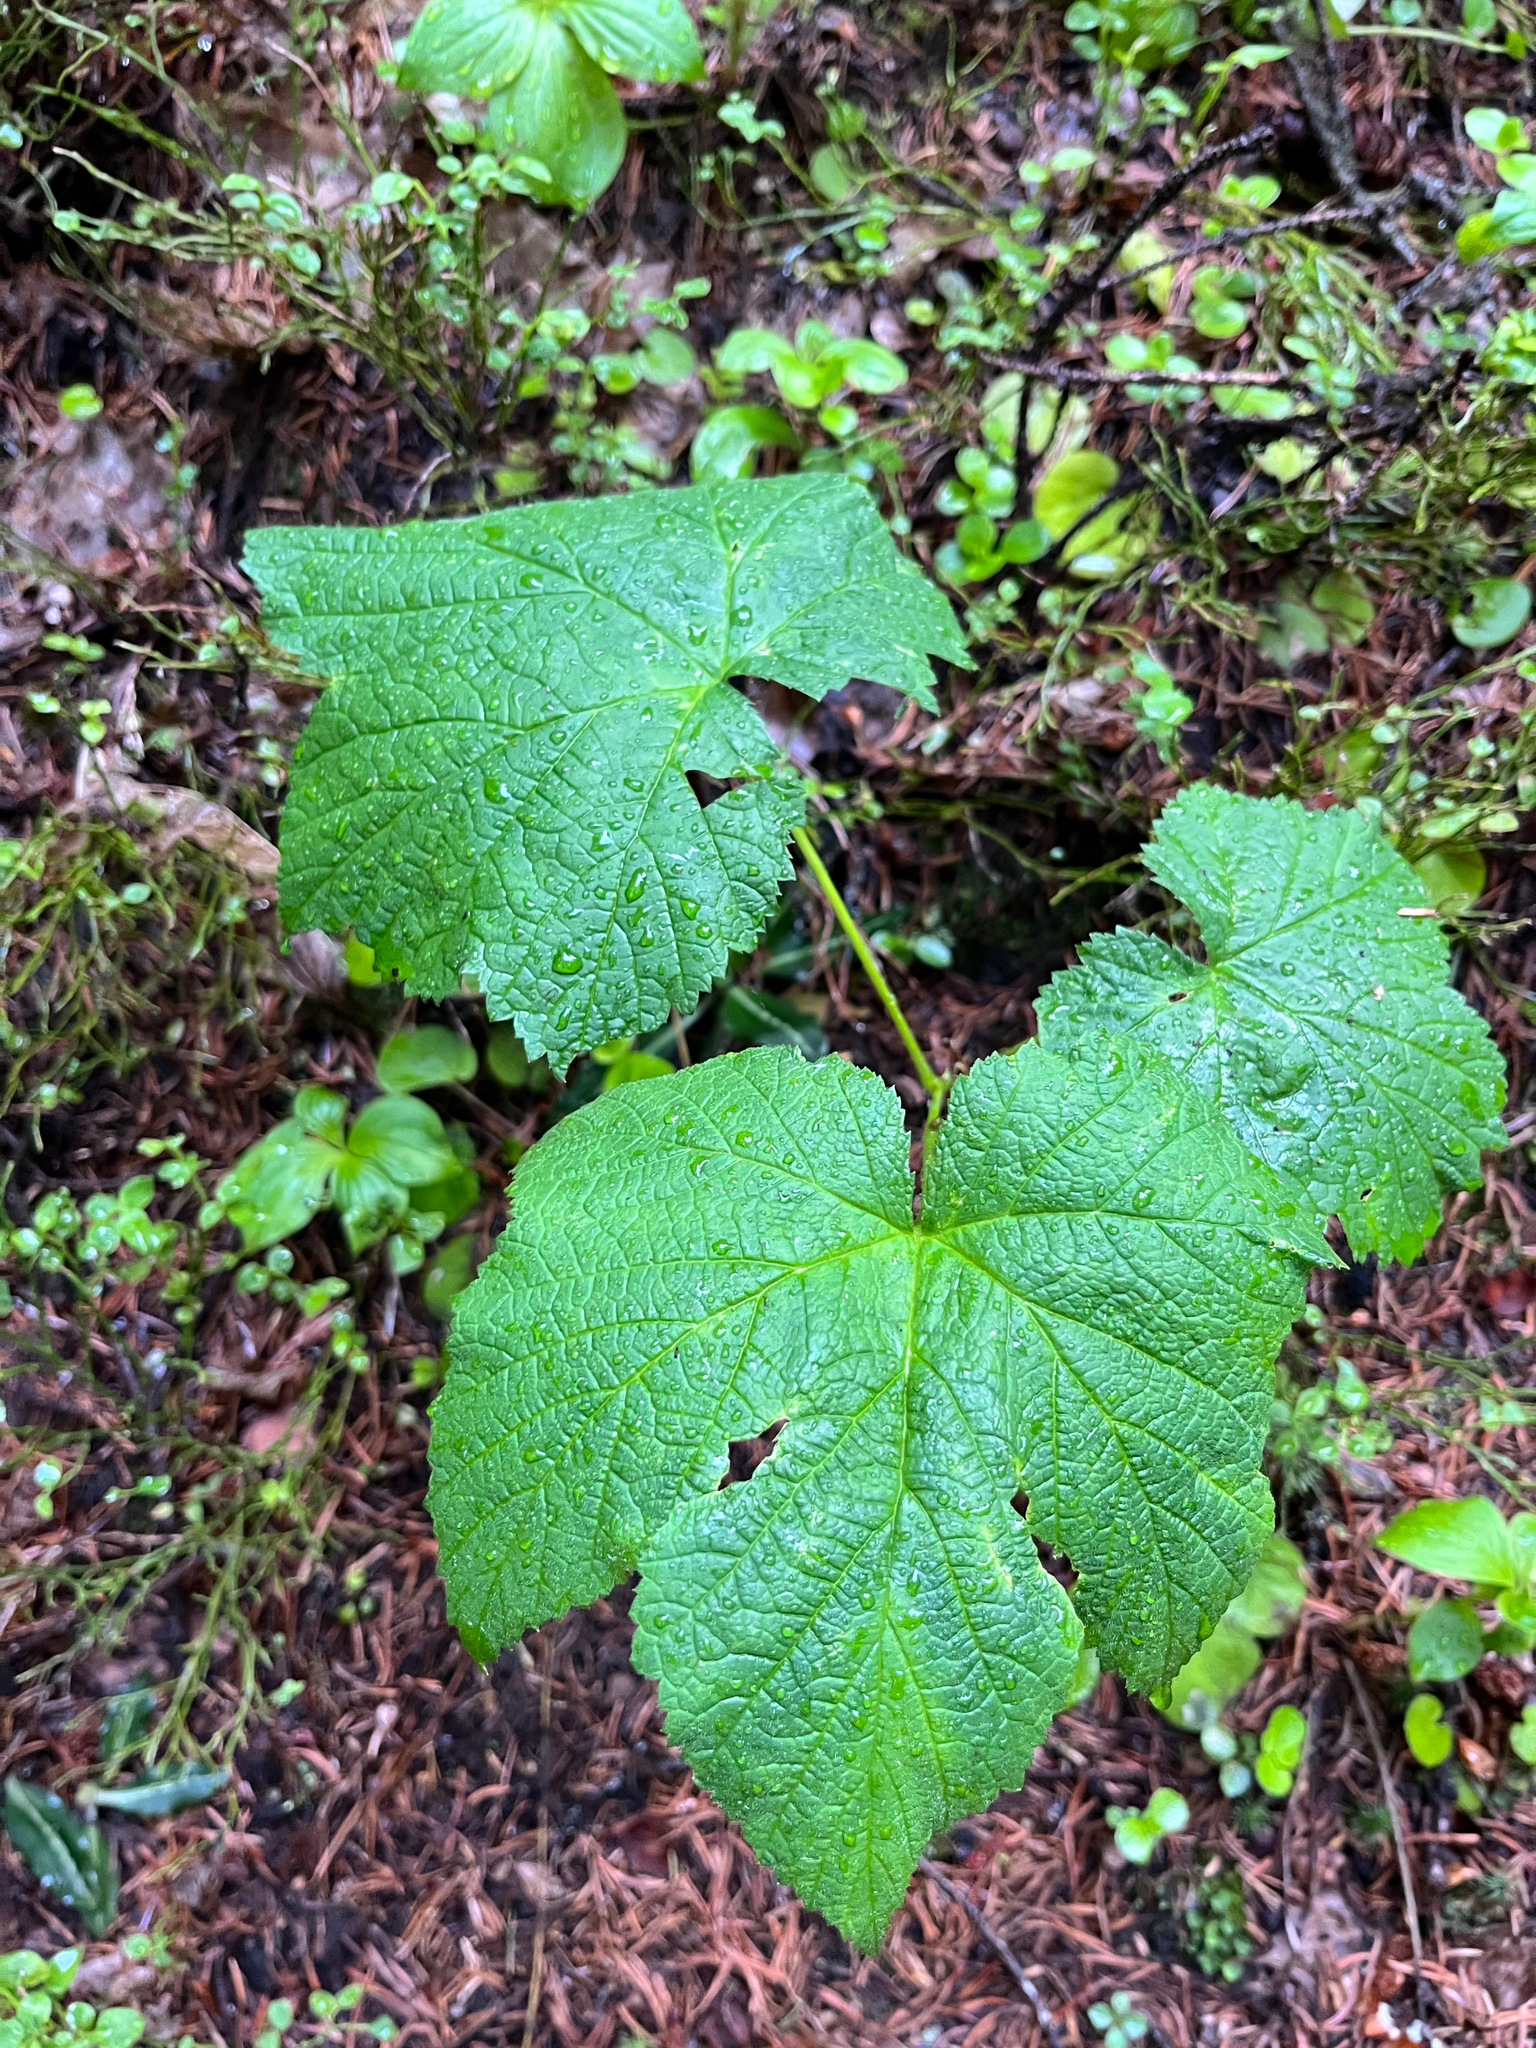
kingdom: Plantae
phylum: Tracheophyta
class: Magnoliopsida
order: Rosales
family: Rosaceae
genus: Rubus
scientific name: Rubus parviflorus
